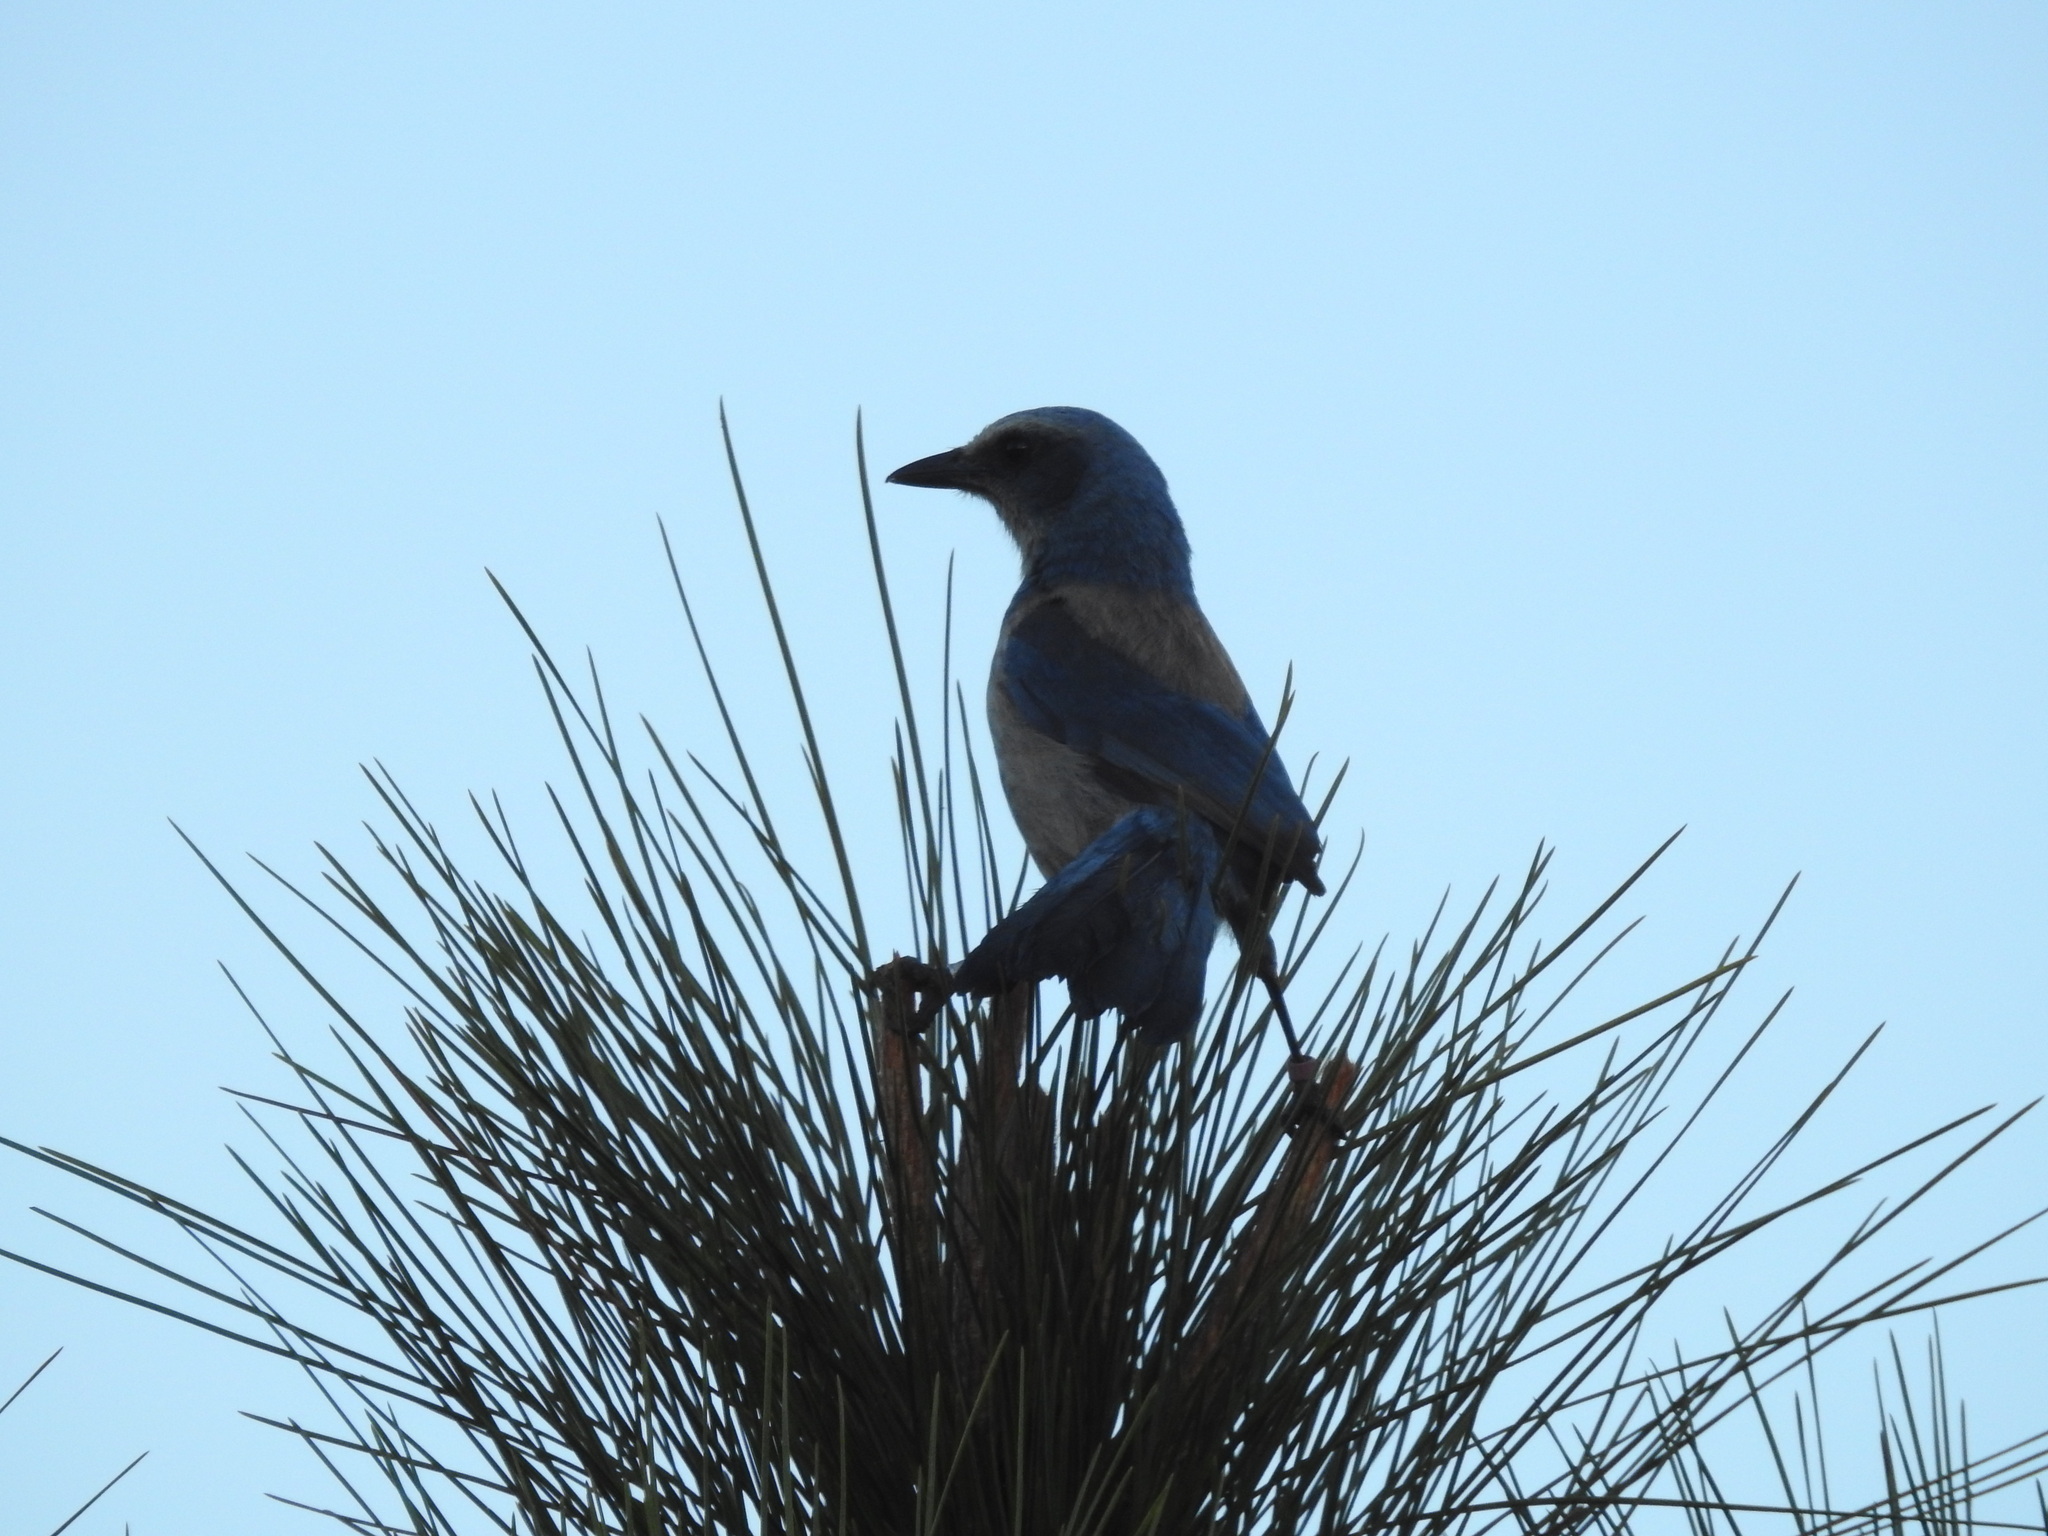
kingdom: Animalia
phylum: Chordata
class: Aves
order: Passeriformes
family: Corvidae
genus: Aphelocoma
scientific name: Aphelocoma coerulescens
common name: Florida scrub jay
